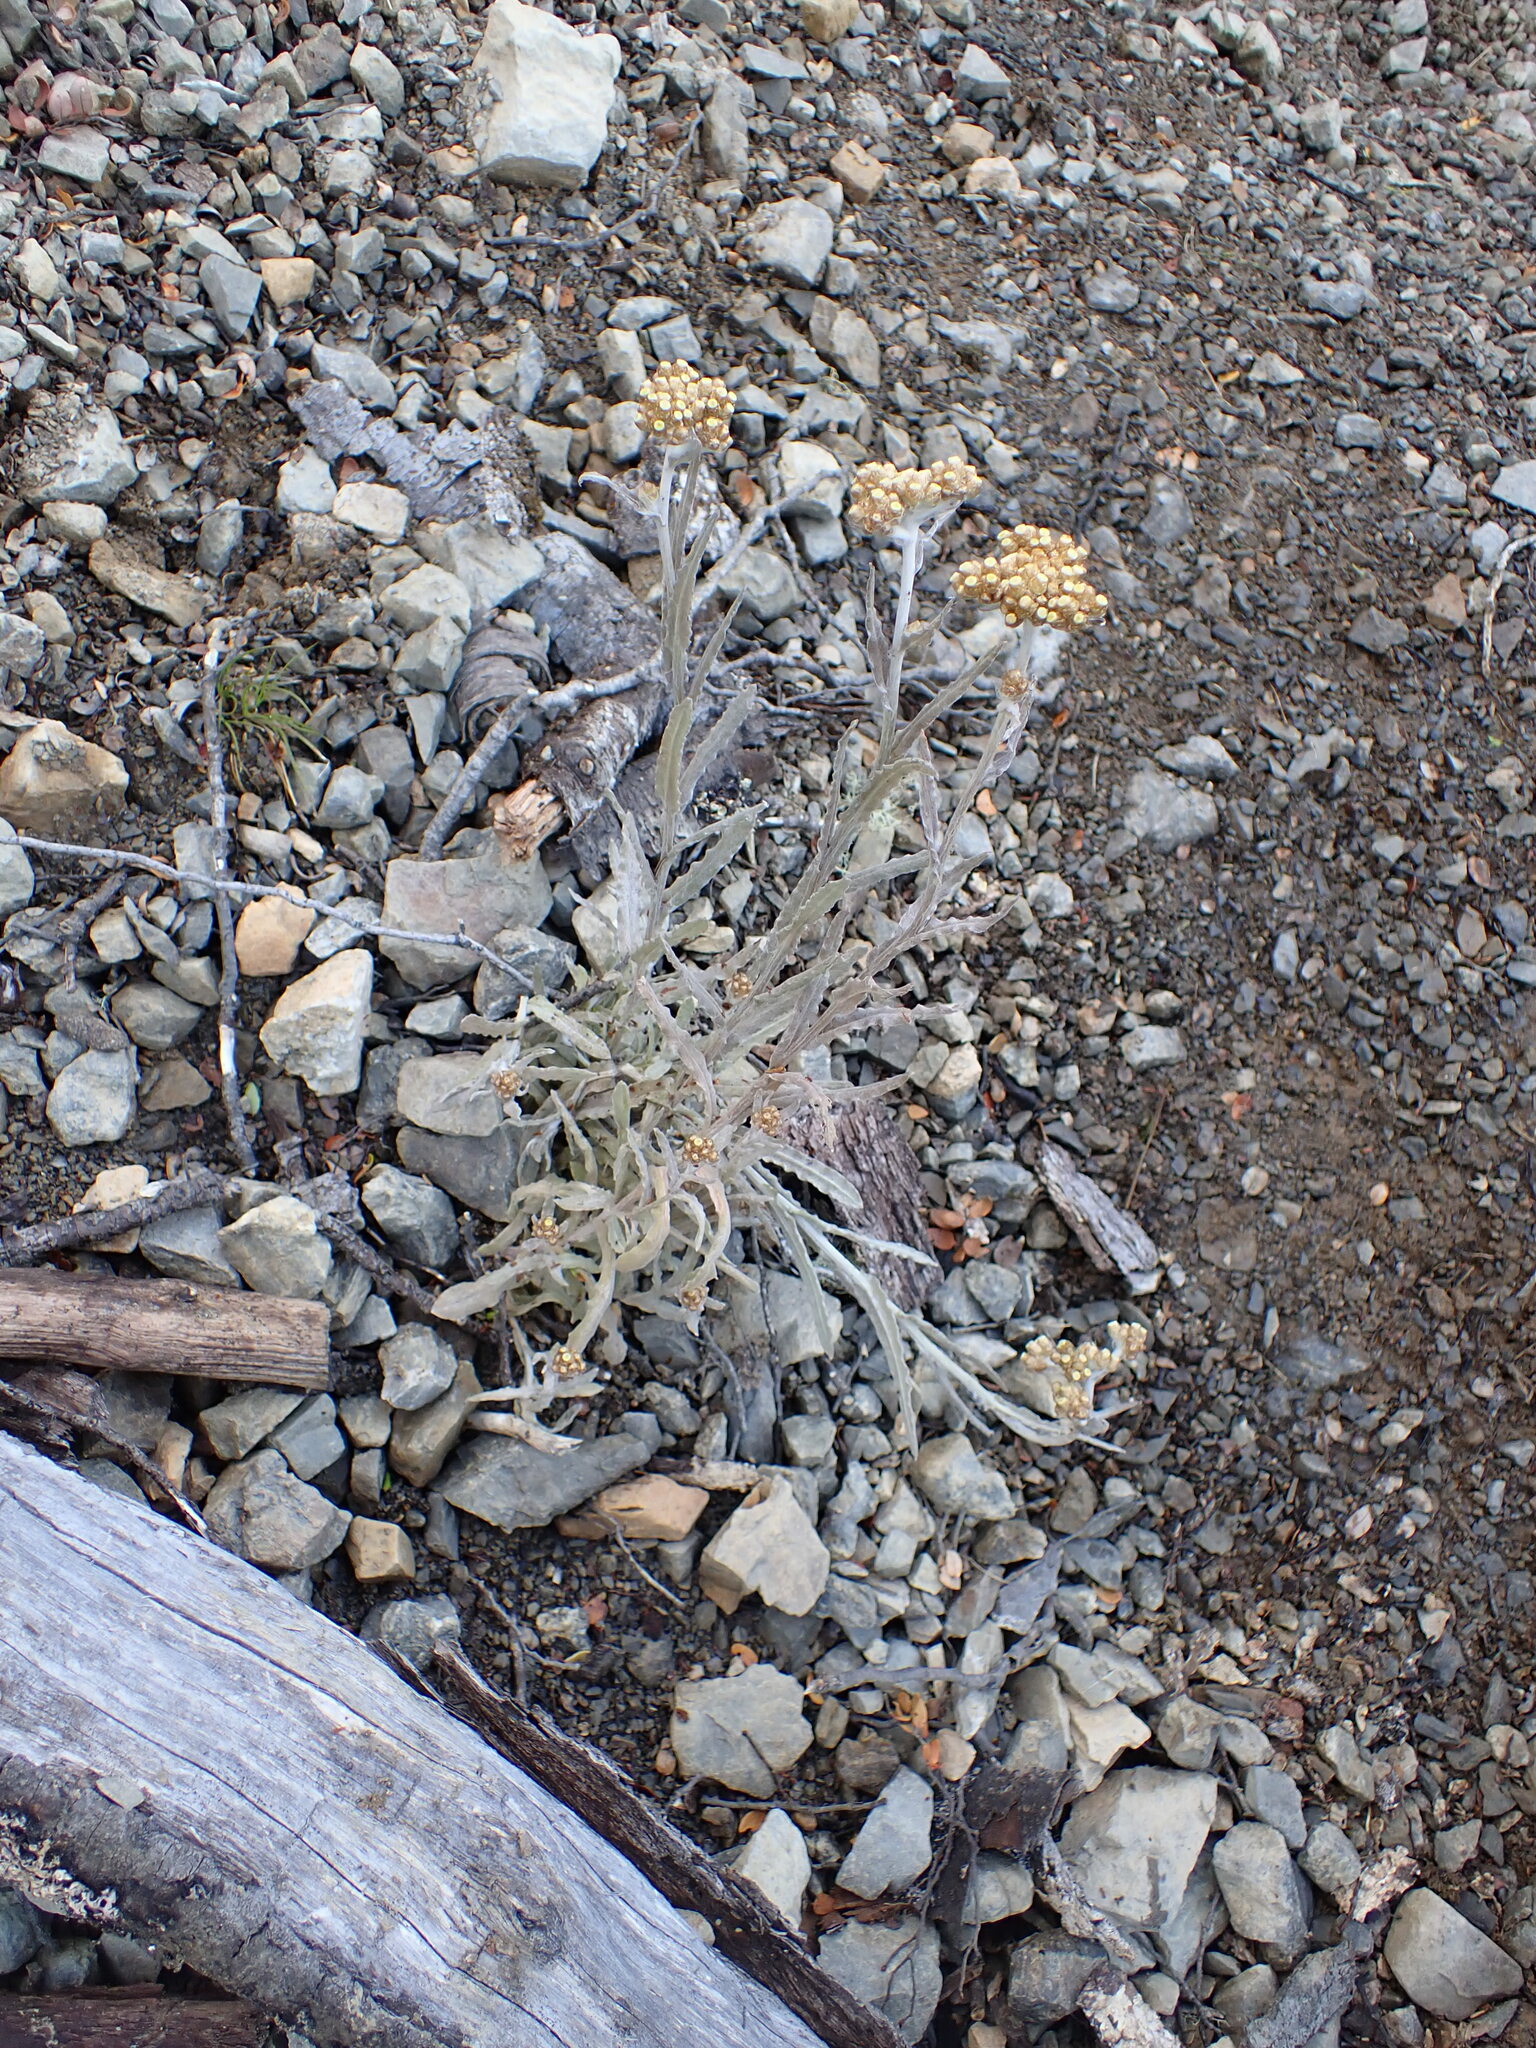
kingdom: Plantae
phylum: Tracheophyta
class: Magnoliopsida
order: Asterales
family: Asteraceae
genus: Pseudognaphalium
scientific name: Pseudognaphalium
